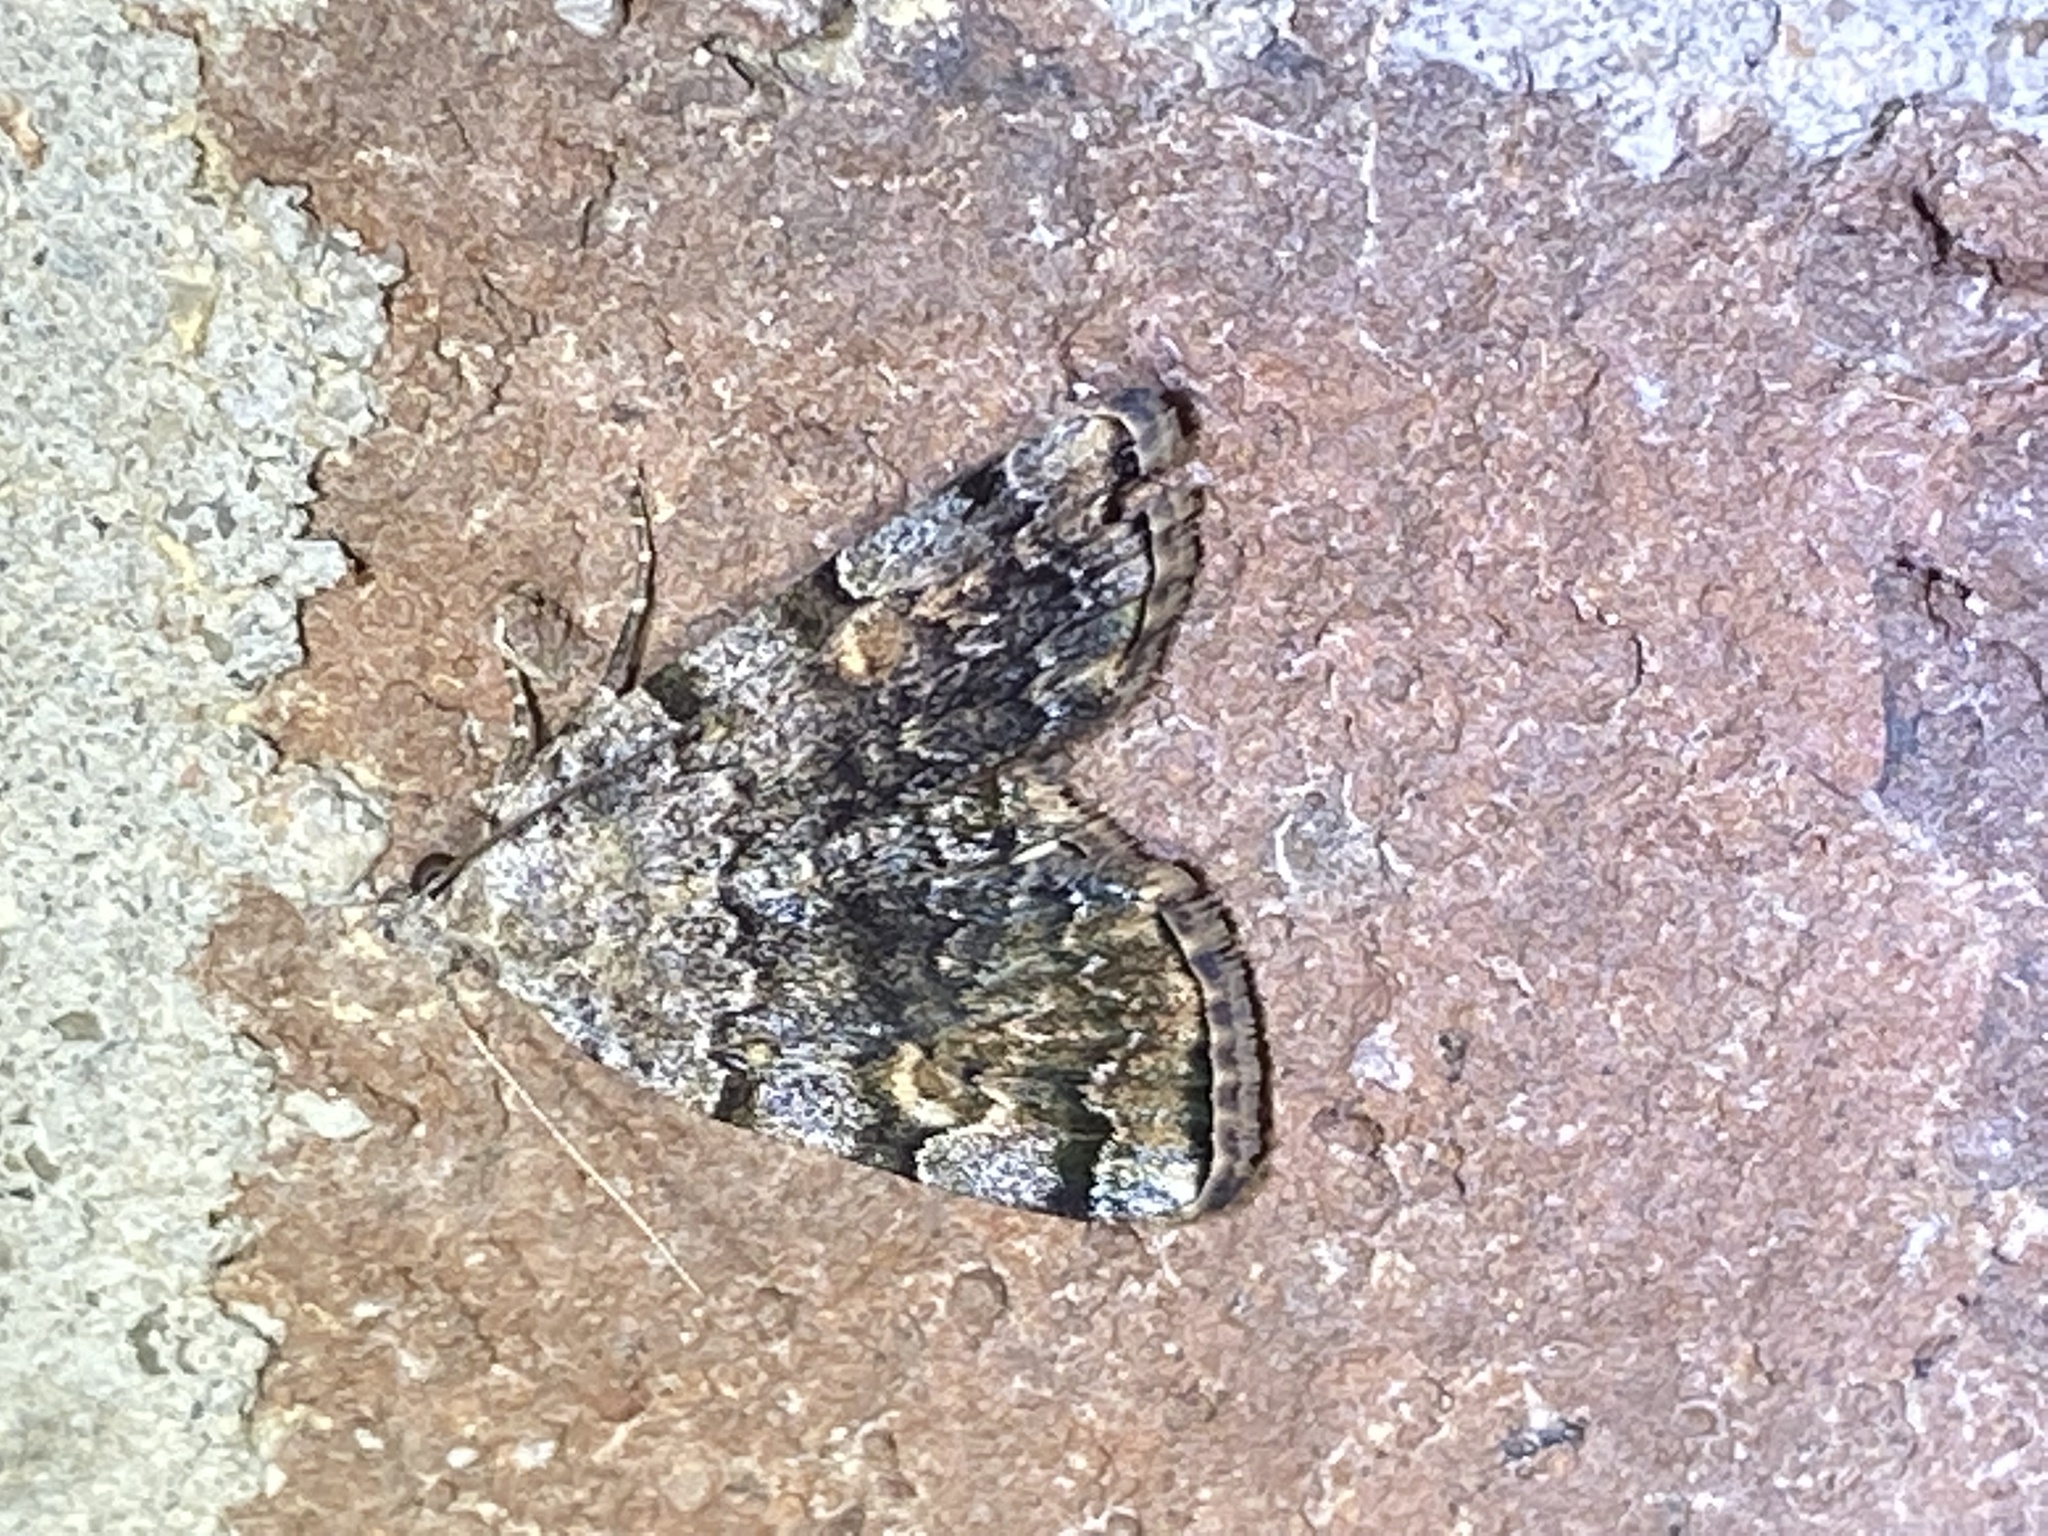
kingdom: Animalia
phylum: Arthropoda
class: Insecta
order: Lepidoptera
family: Erebidae
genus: Idia
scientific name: Idia americalis
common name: American idia moth
